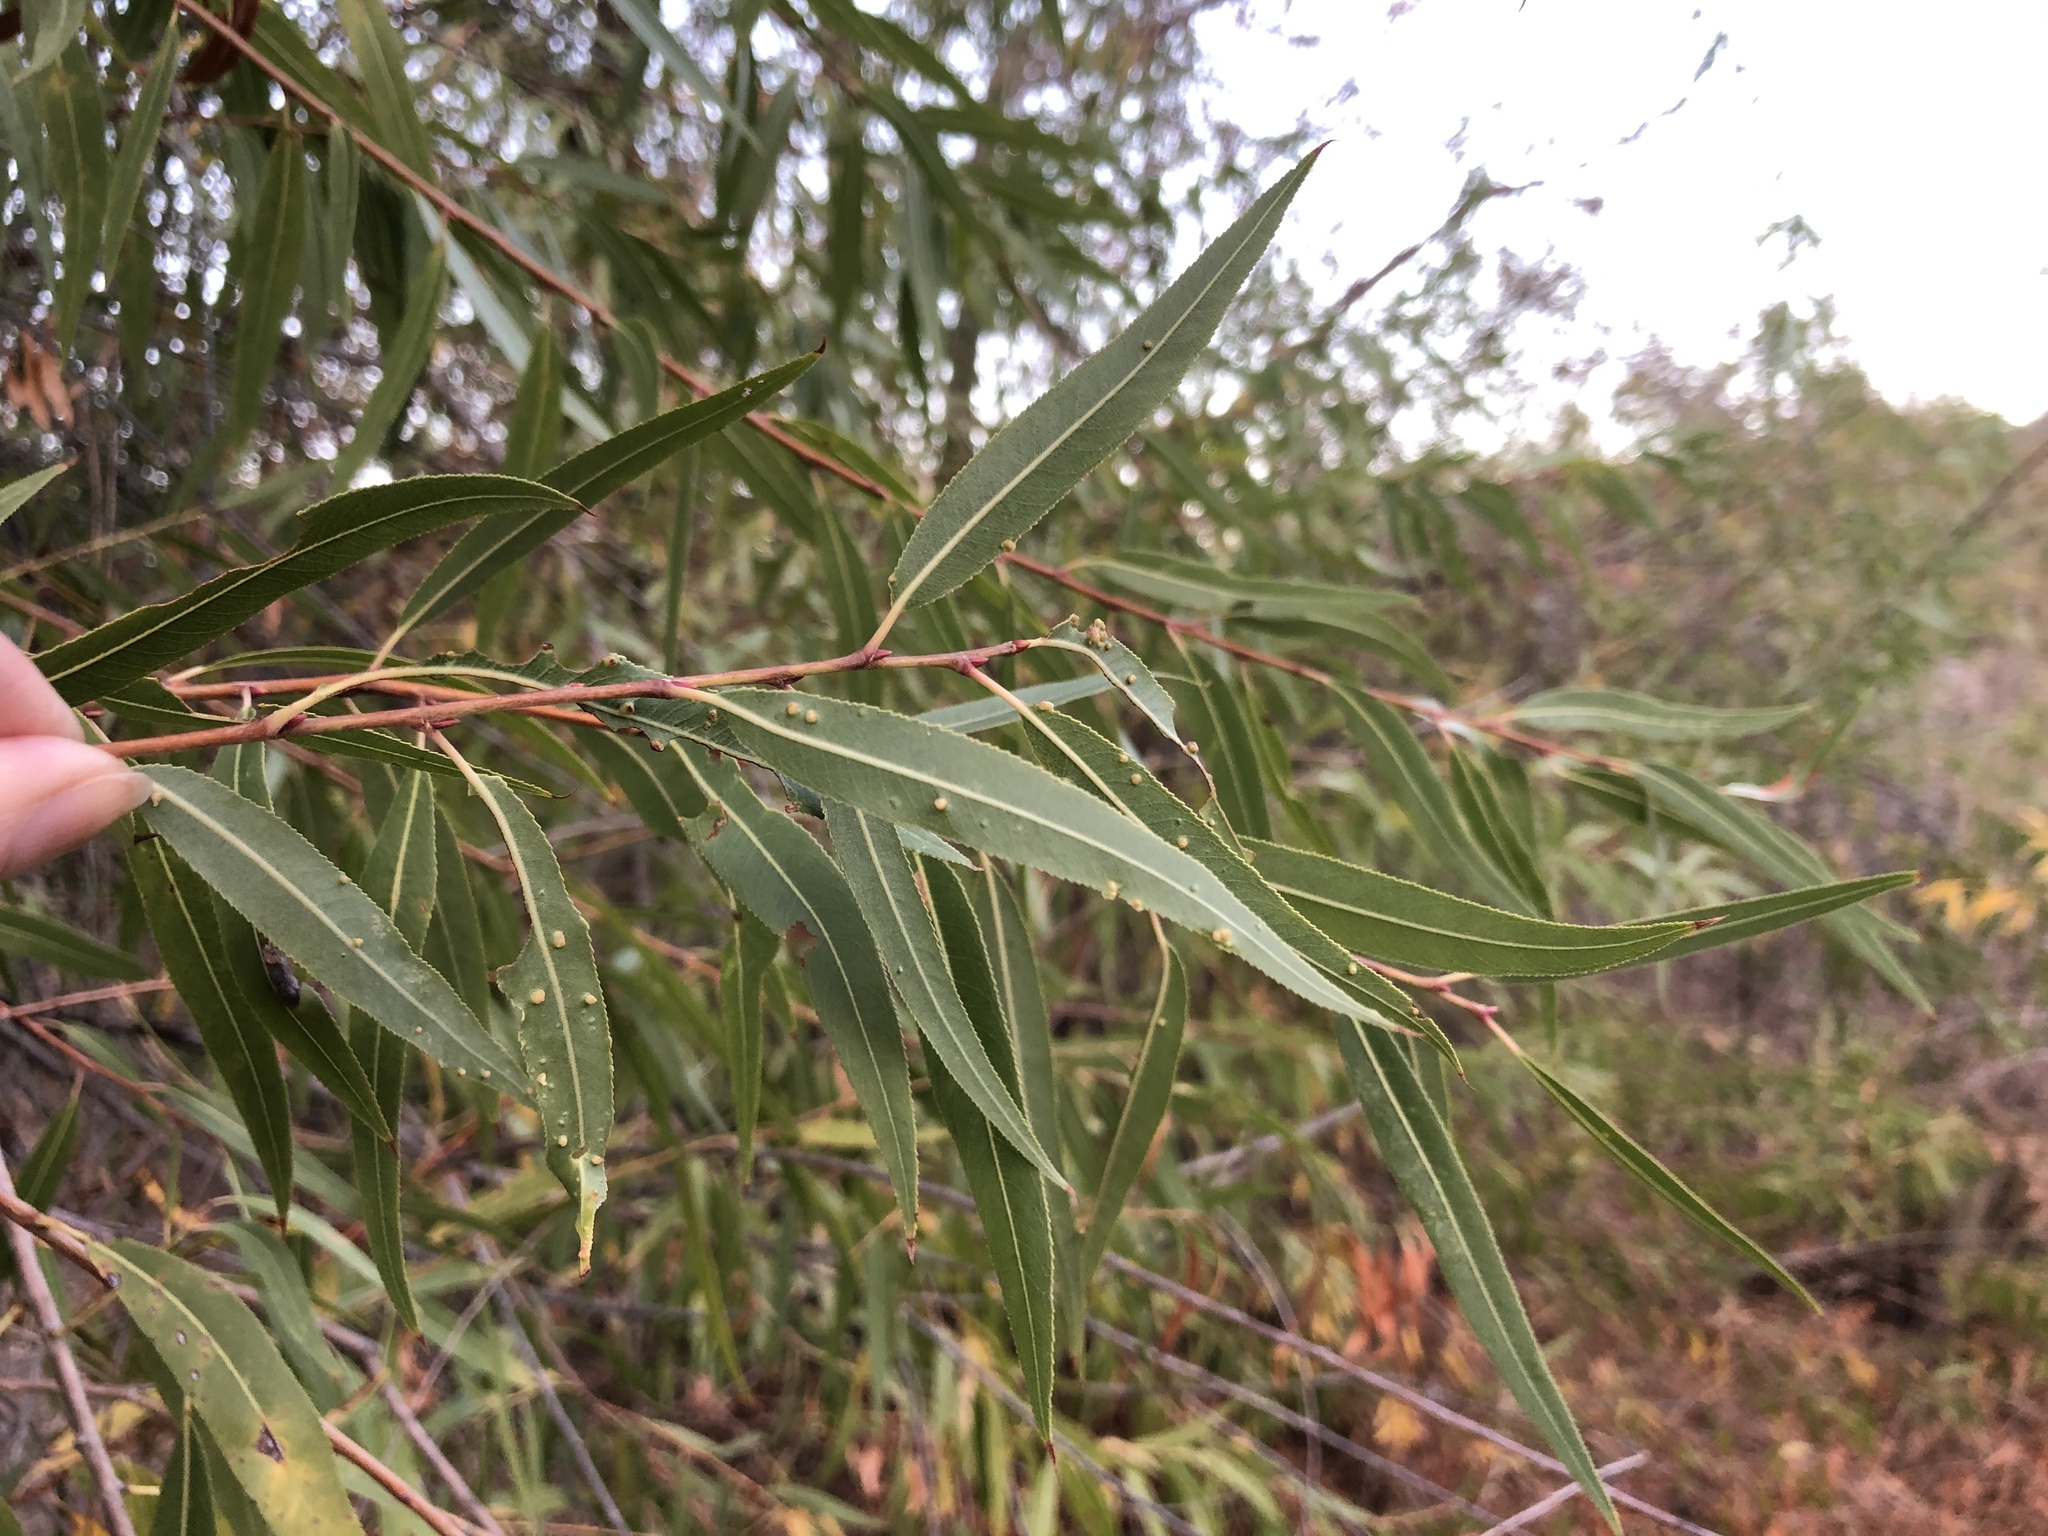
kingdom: Plantae
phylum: Tracheophyta
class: Magnoliopsida
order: Malpighiales
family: Salicaceae
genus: Salix
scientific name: Salix gooddingii
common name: Goodding's willow
